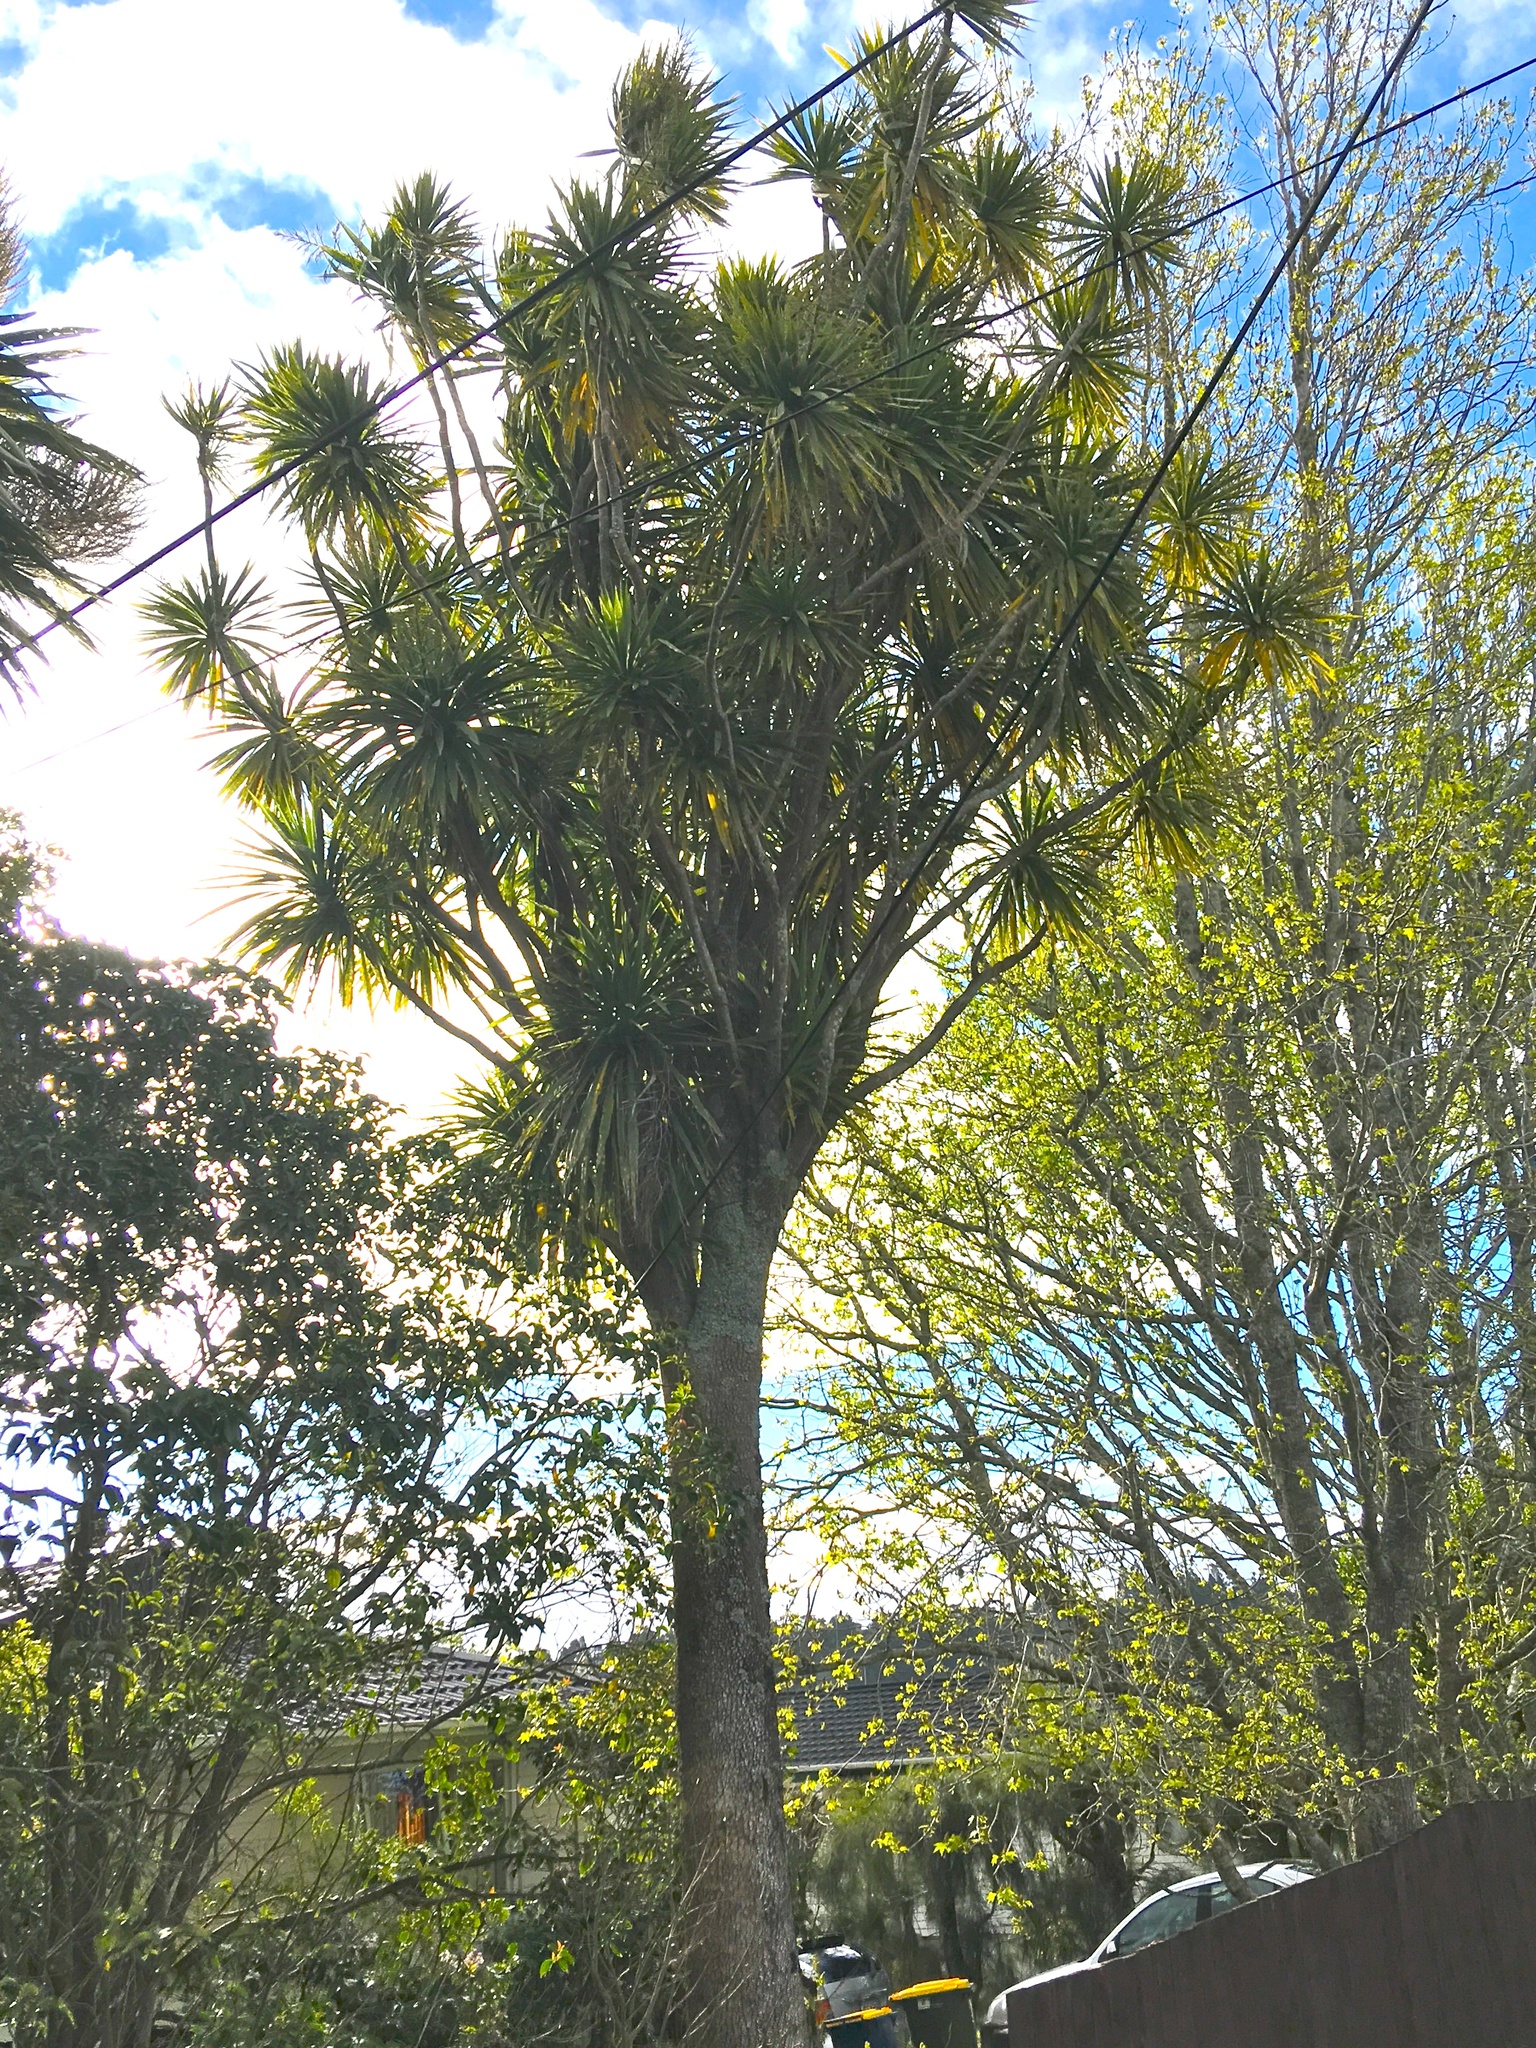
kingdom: Plantae
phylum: Tracheophyta
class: Liliopsida
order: Asparagales
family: Asparagaceae
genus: Cordyline
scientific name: Cordyline australis
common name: Cabbage-palm
